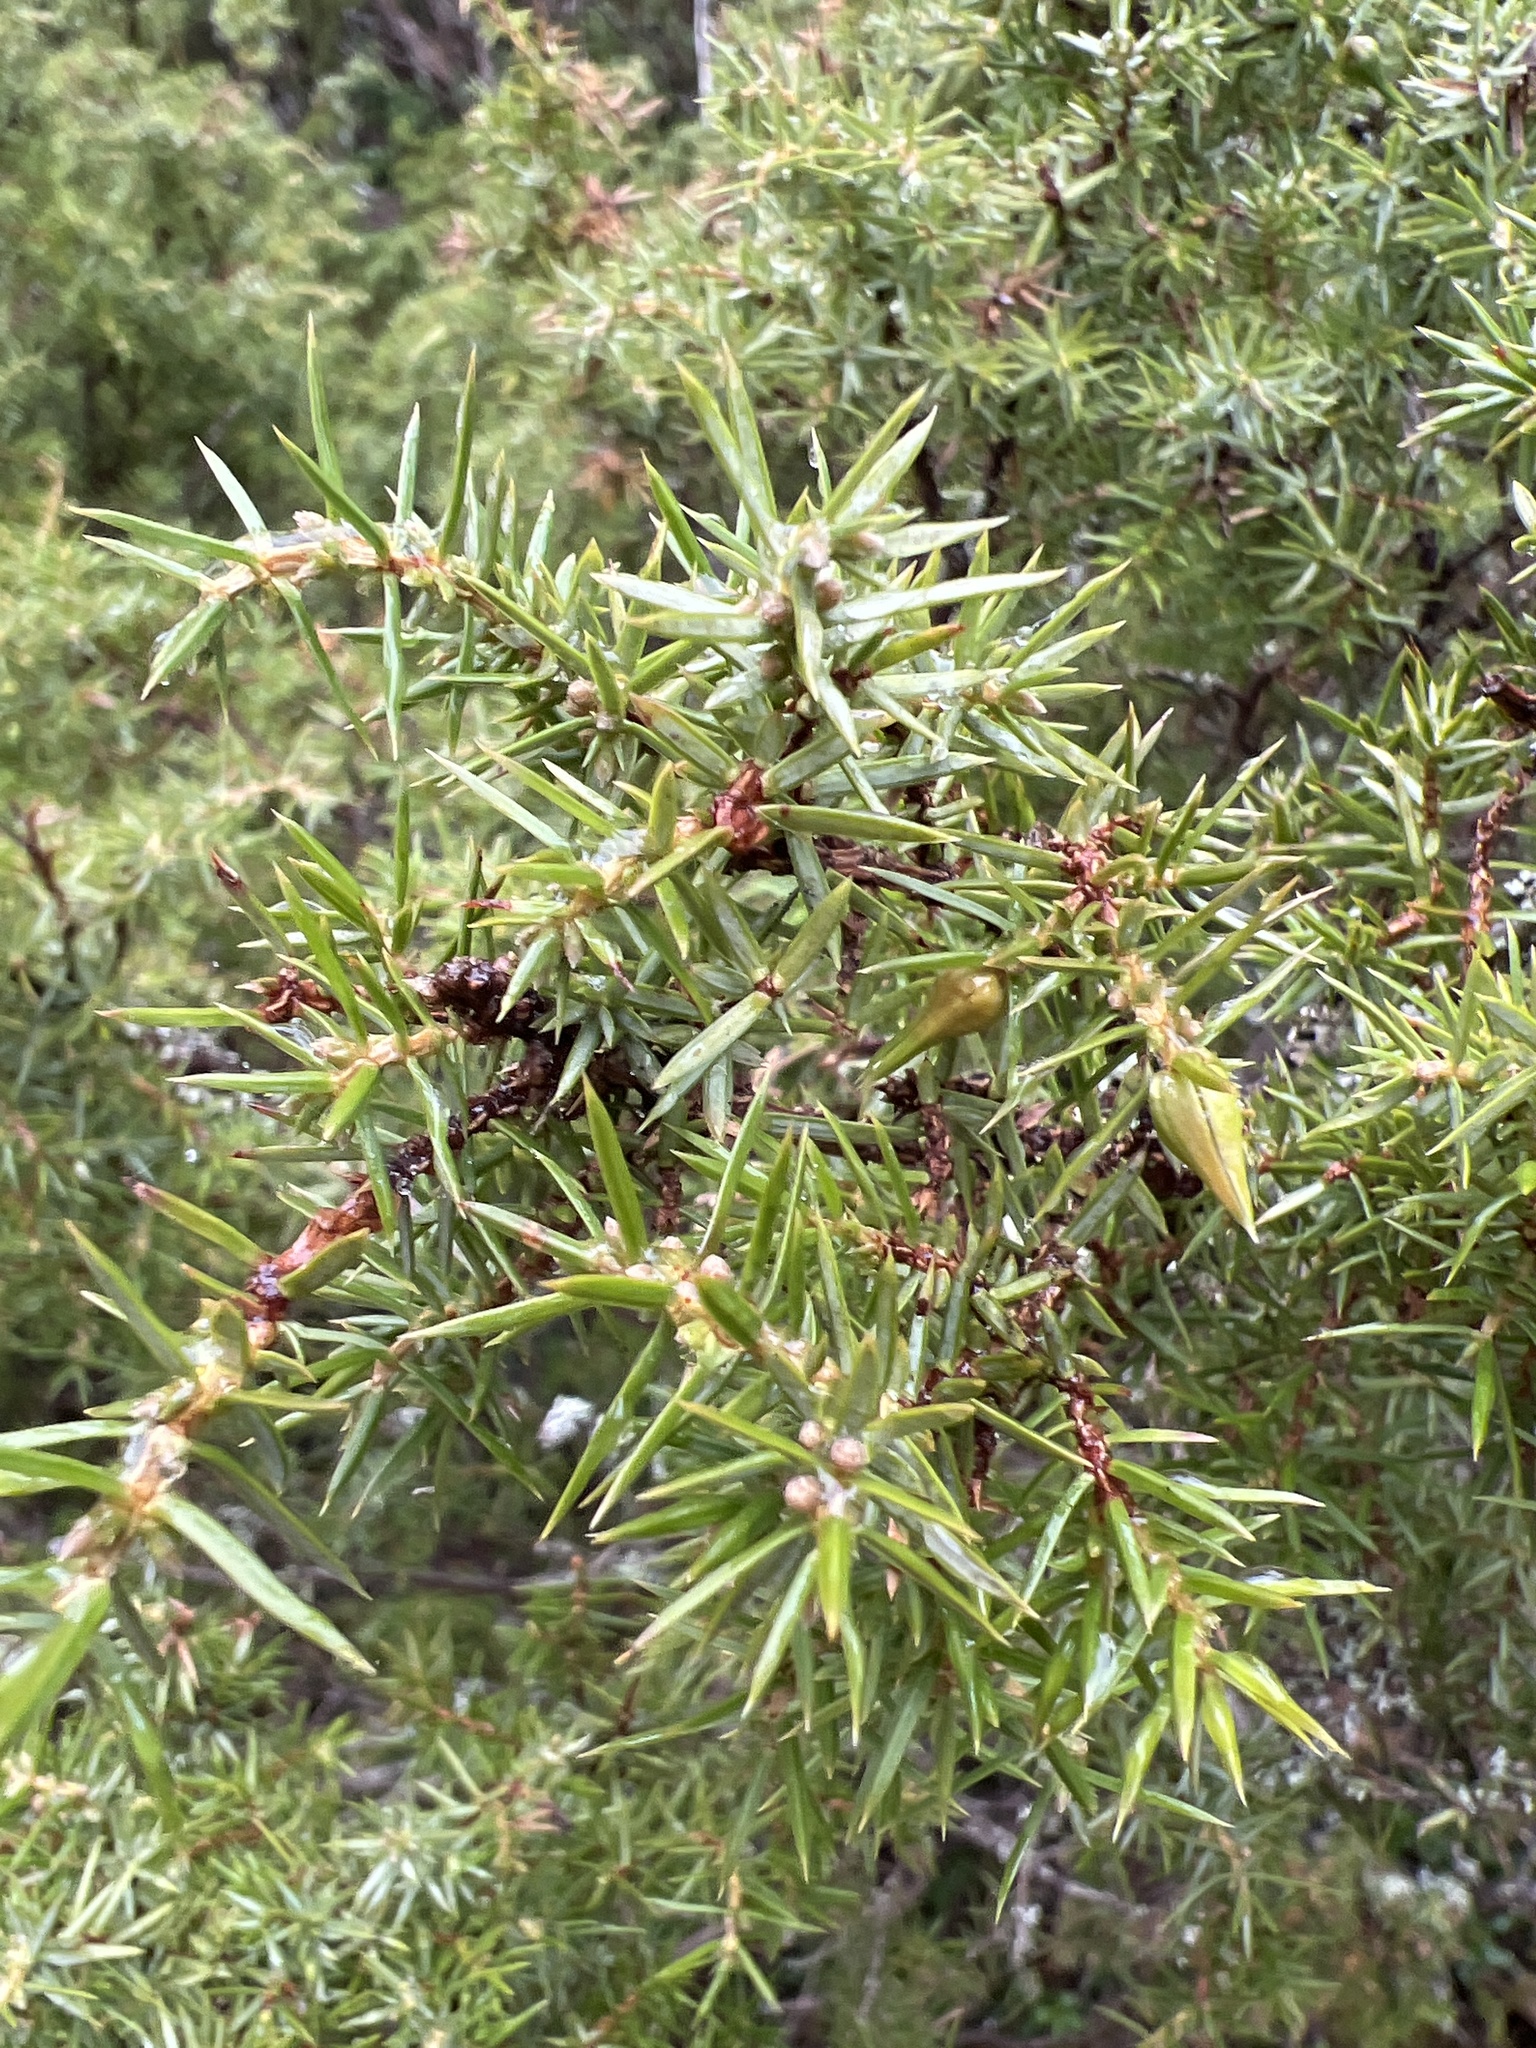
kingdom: Plantae
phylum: Tracheophyta
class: Pinopsida
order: Pinales
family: Cupressaceae
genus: Juniperus
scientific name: Juniperus communis
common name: Common juniper
